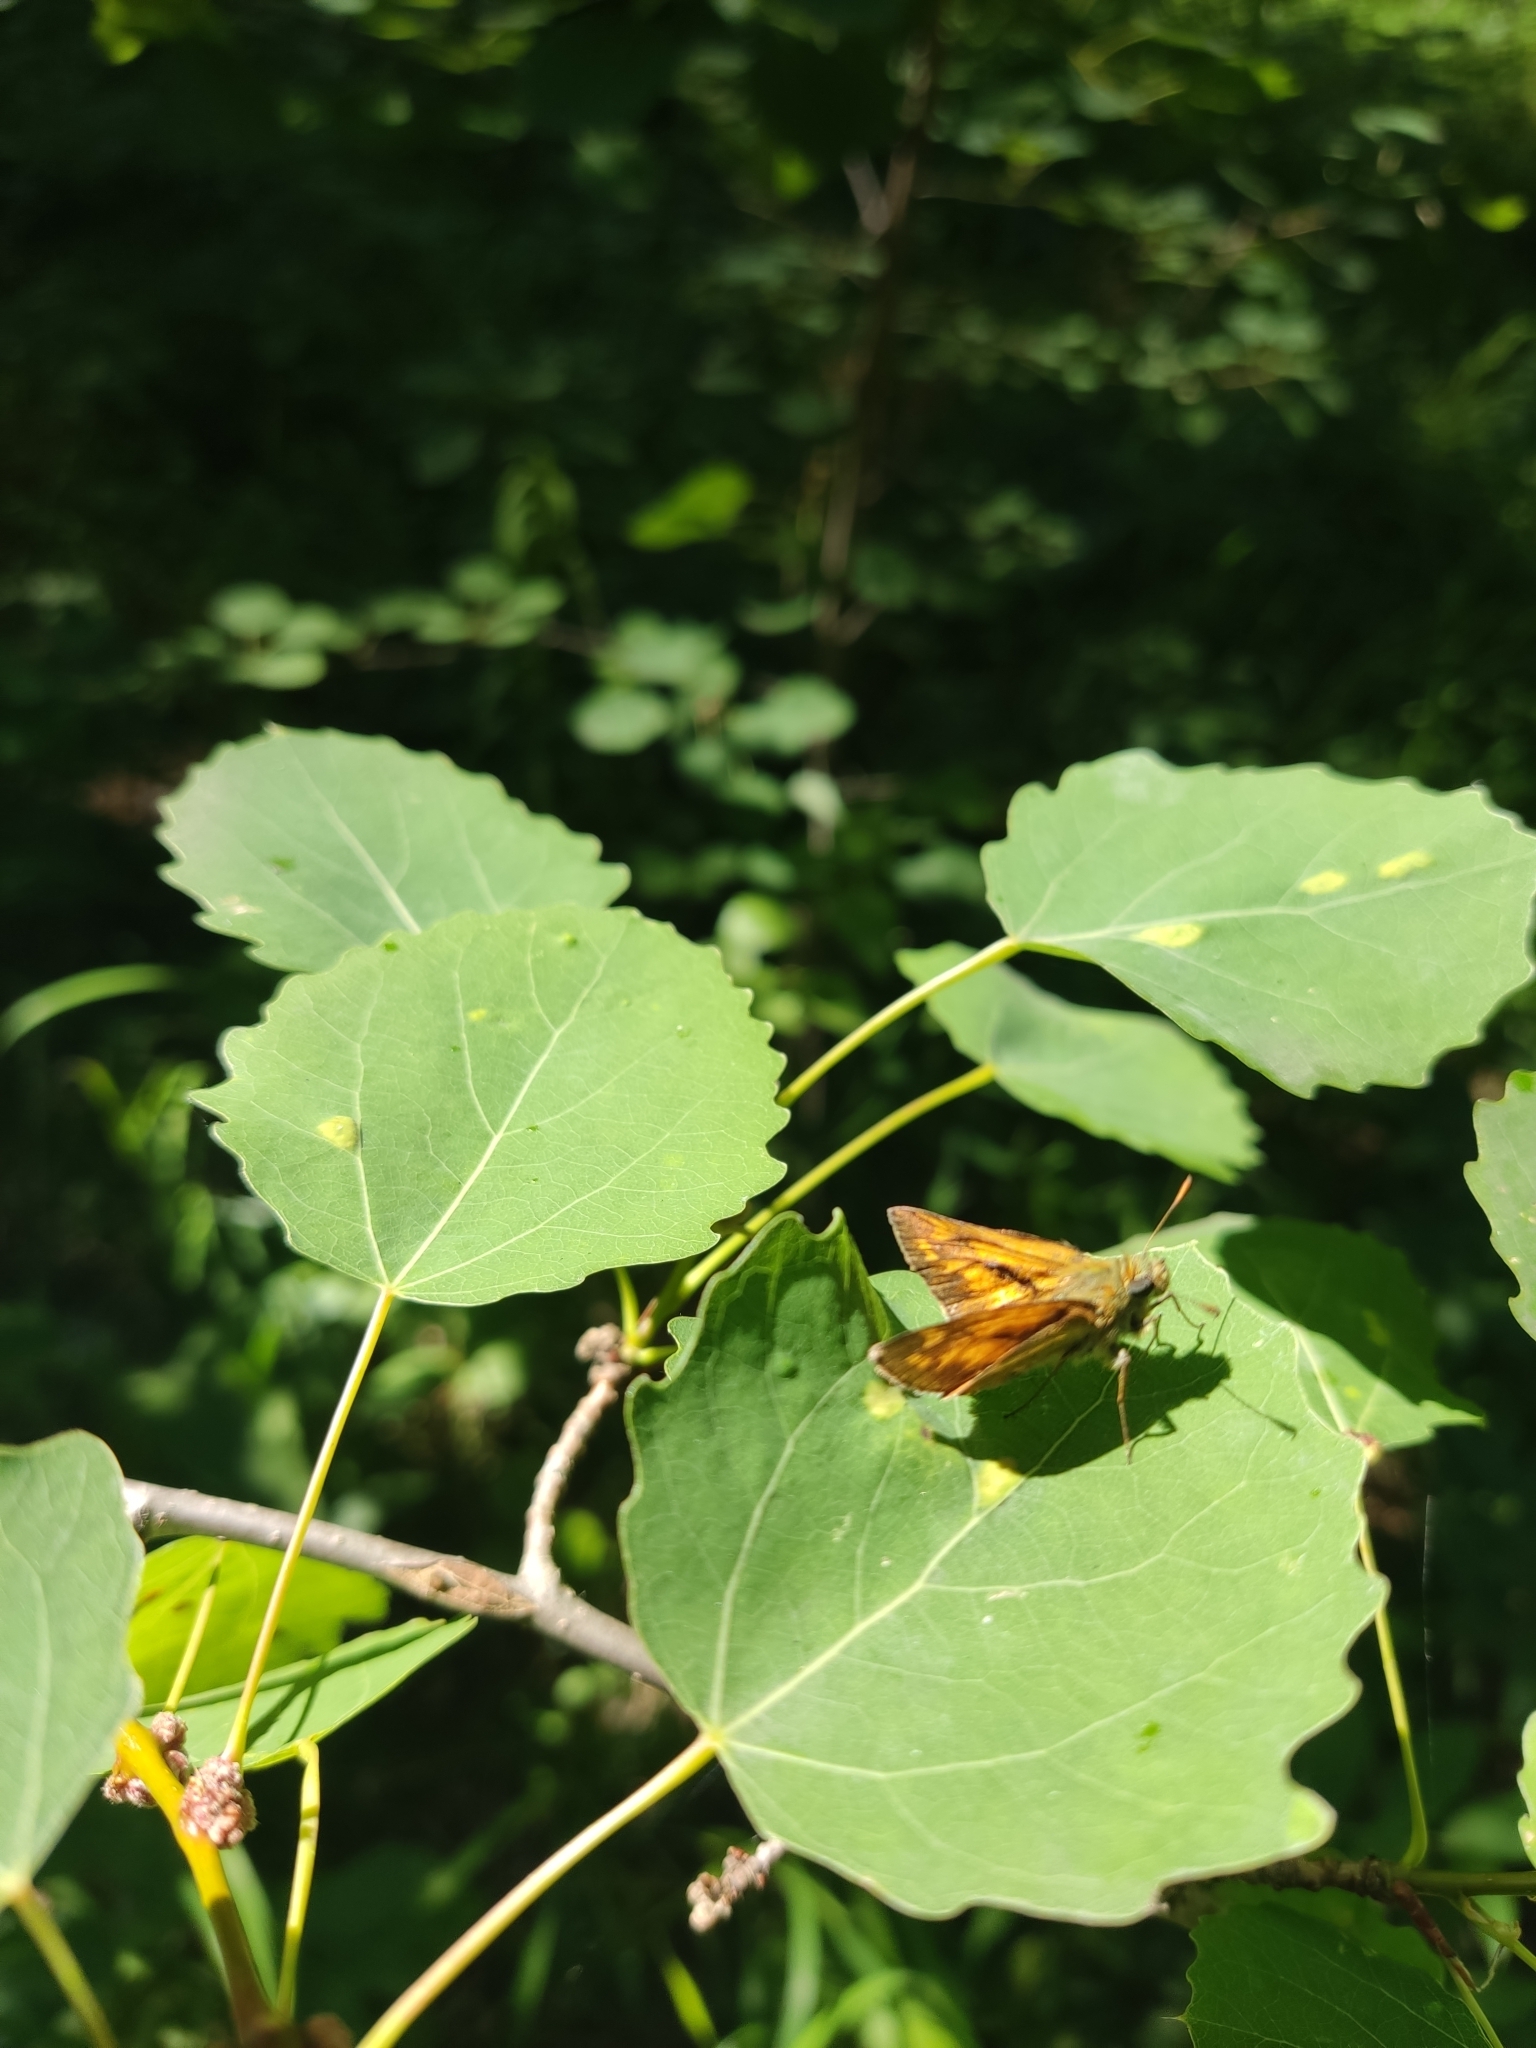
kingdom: Animalia
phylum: Arthropoda
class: Insecta
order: Lepidoptera
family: Hesperiidae
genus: Ochlodes
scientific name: Ochlodes venata
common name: Large skipper
